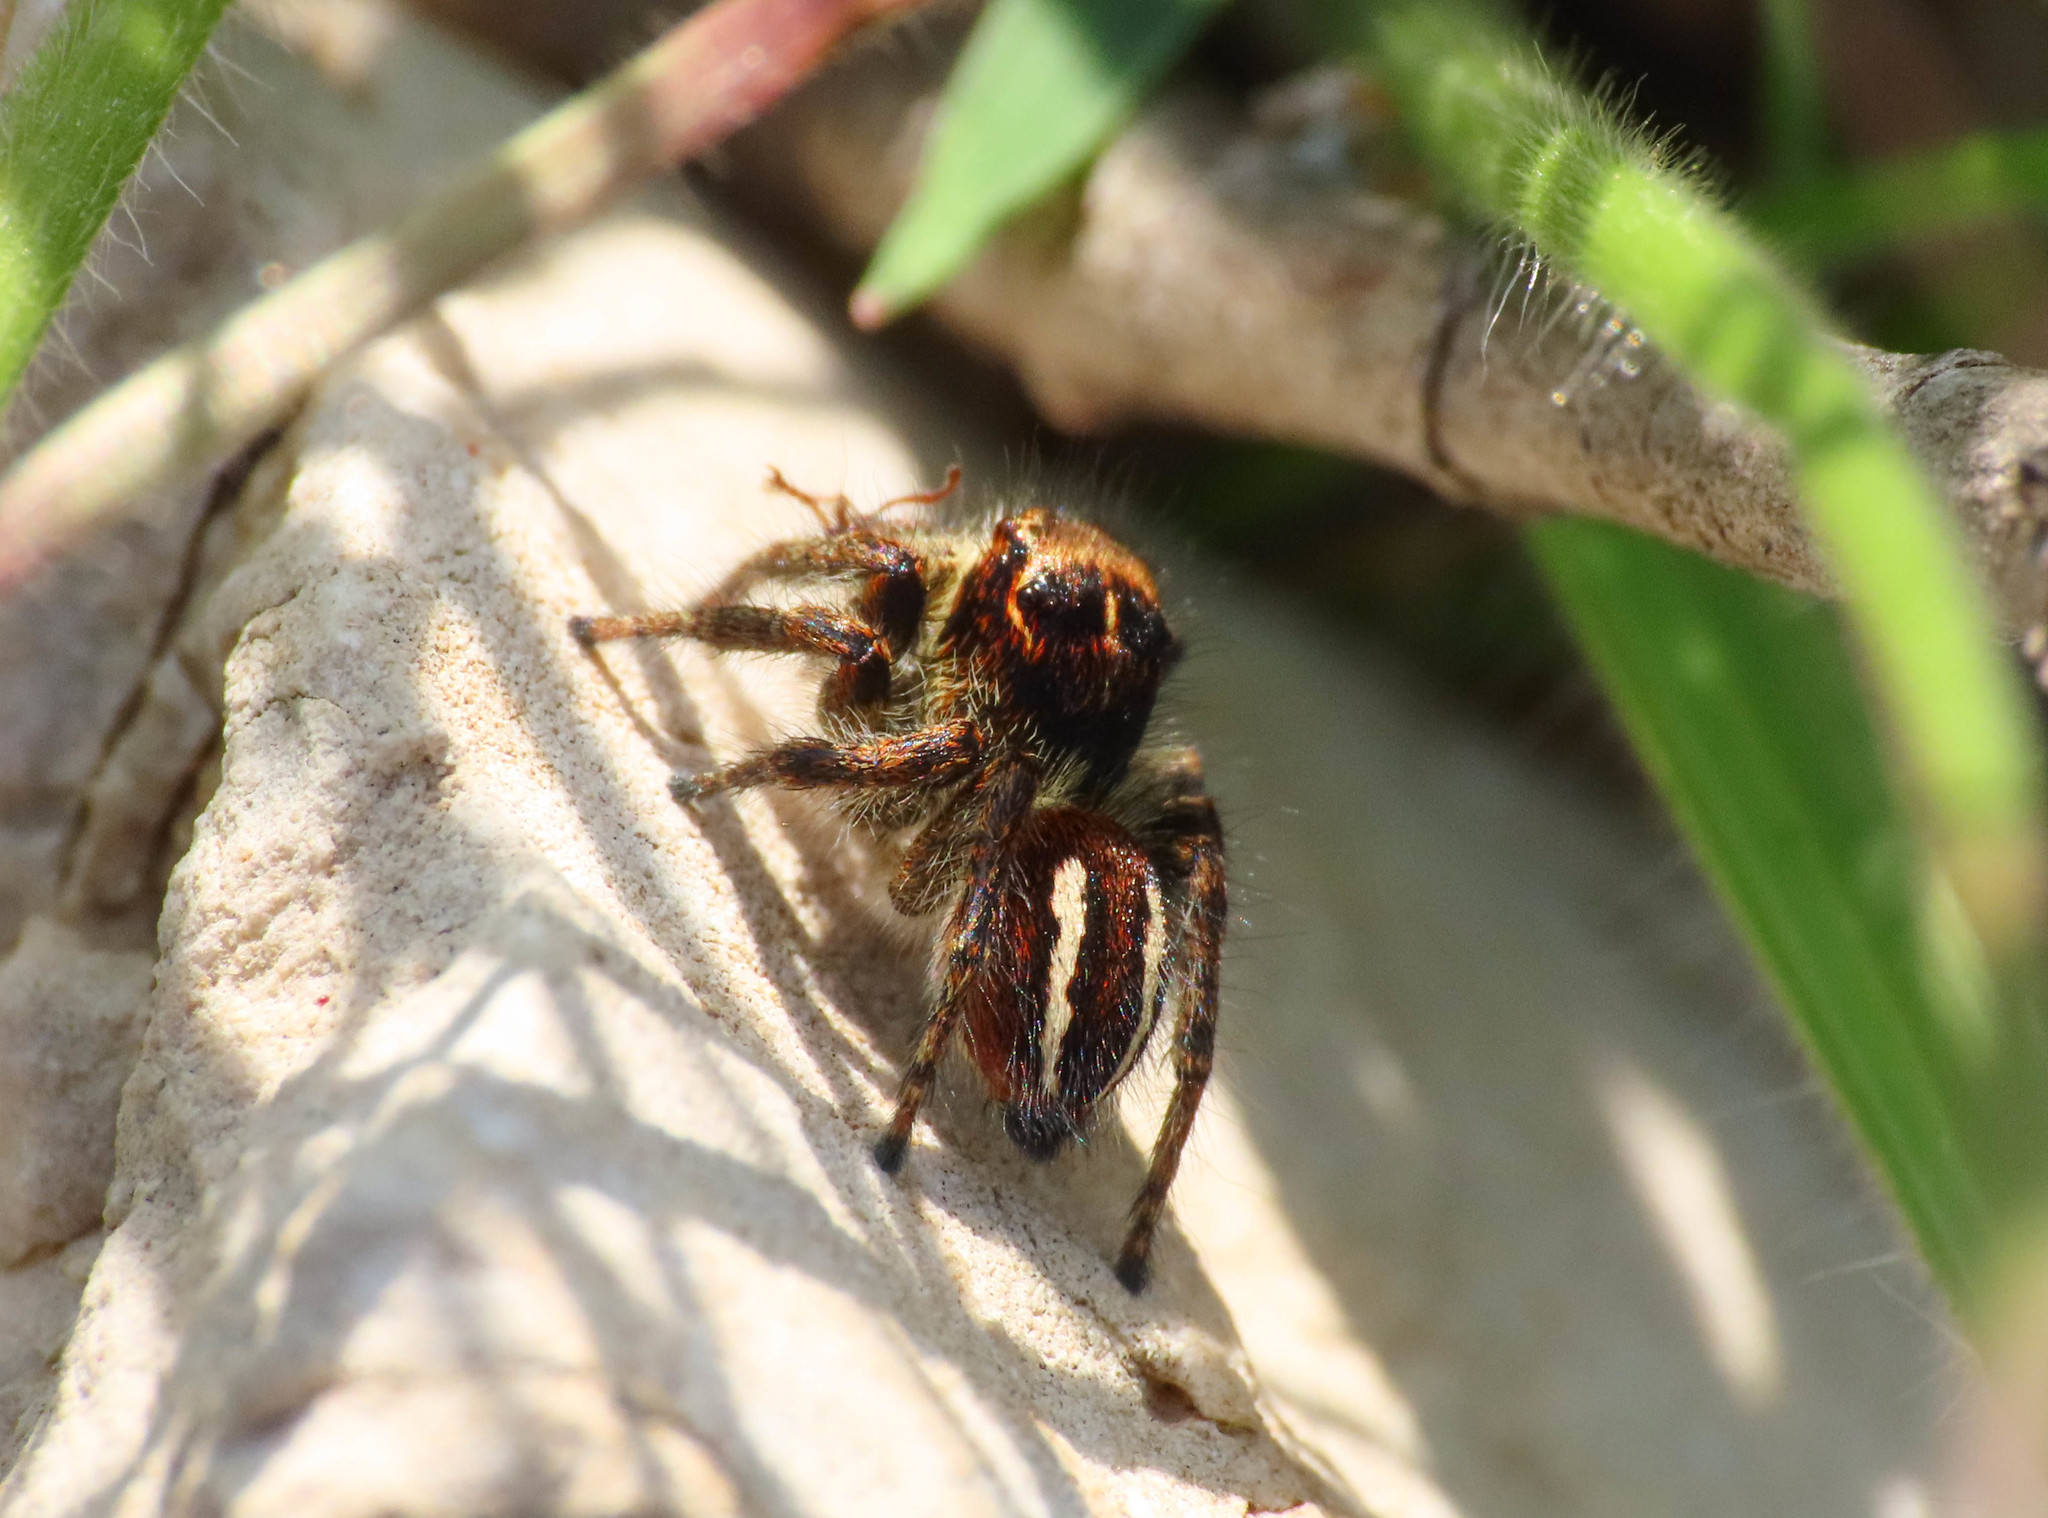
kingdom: Animalia
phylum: Arthropoda
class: Arachnida
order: Araneae
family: Salticidae
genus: Philaeus
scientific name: Philaeus chrysops
